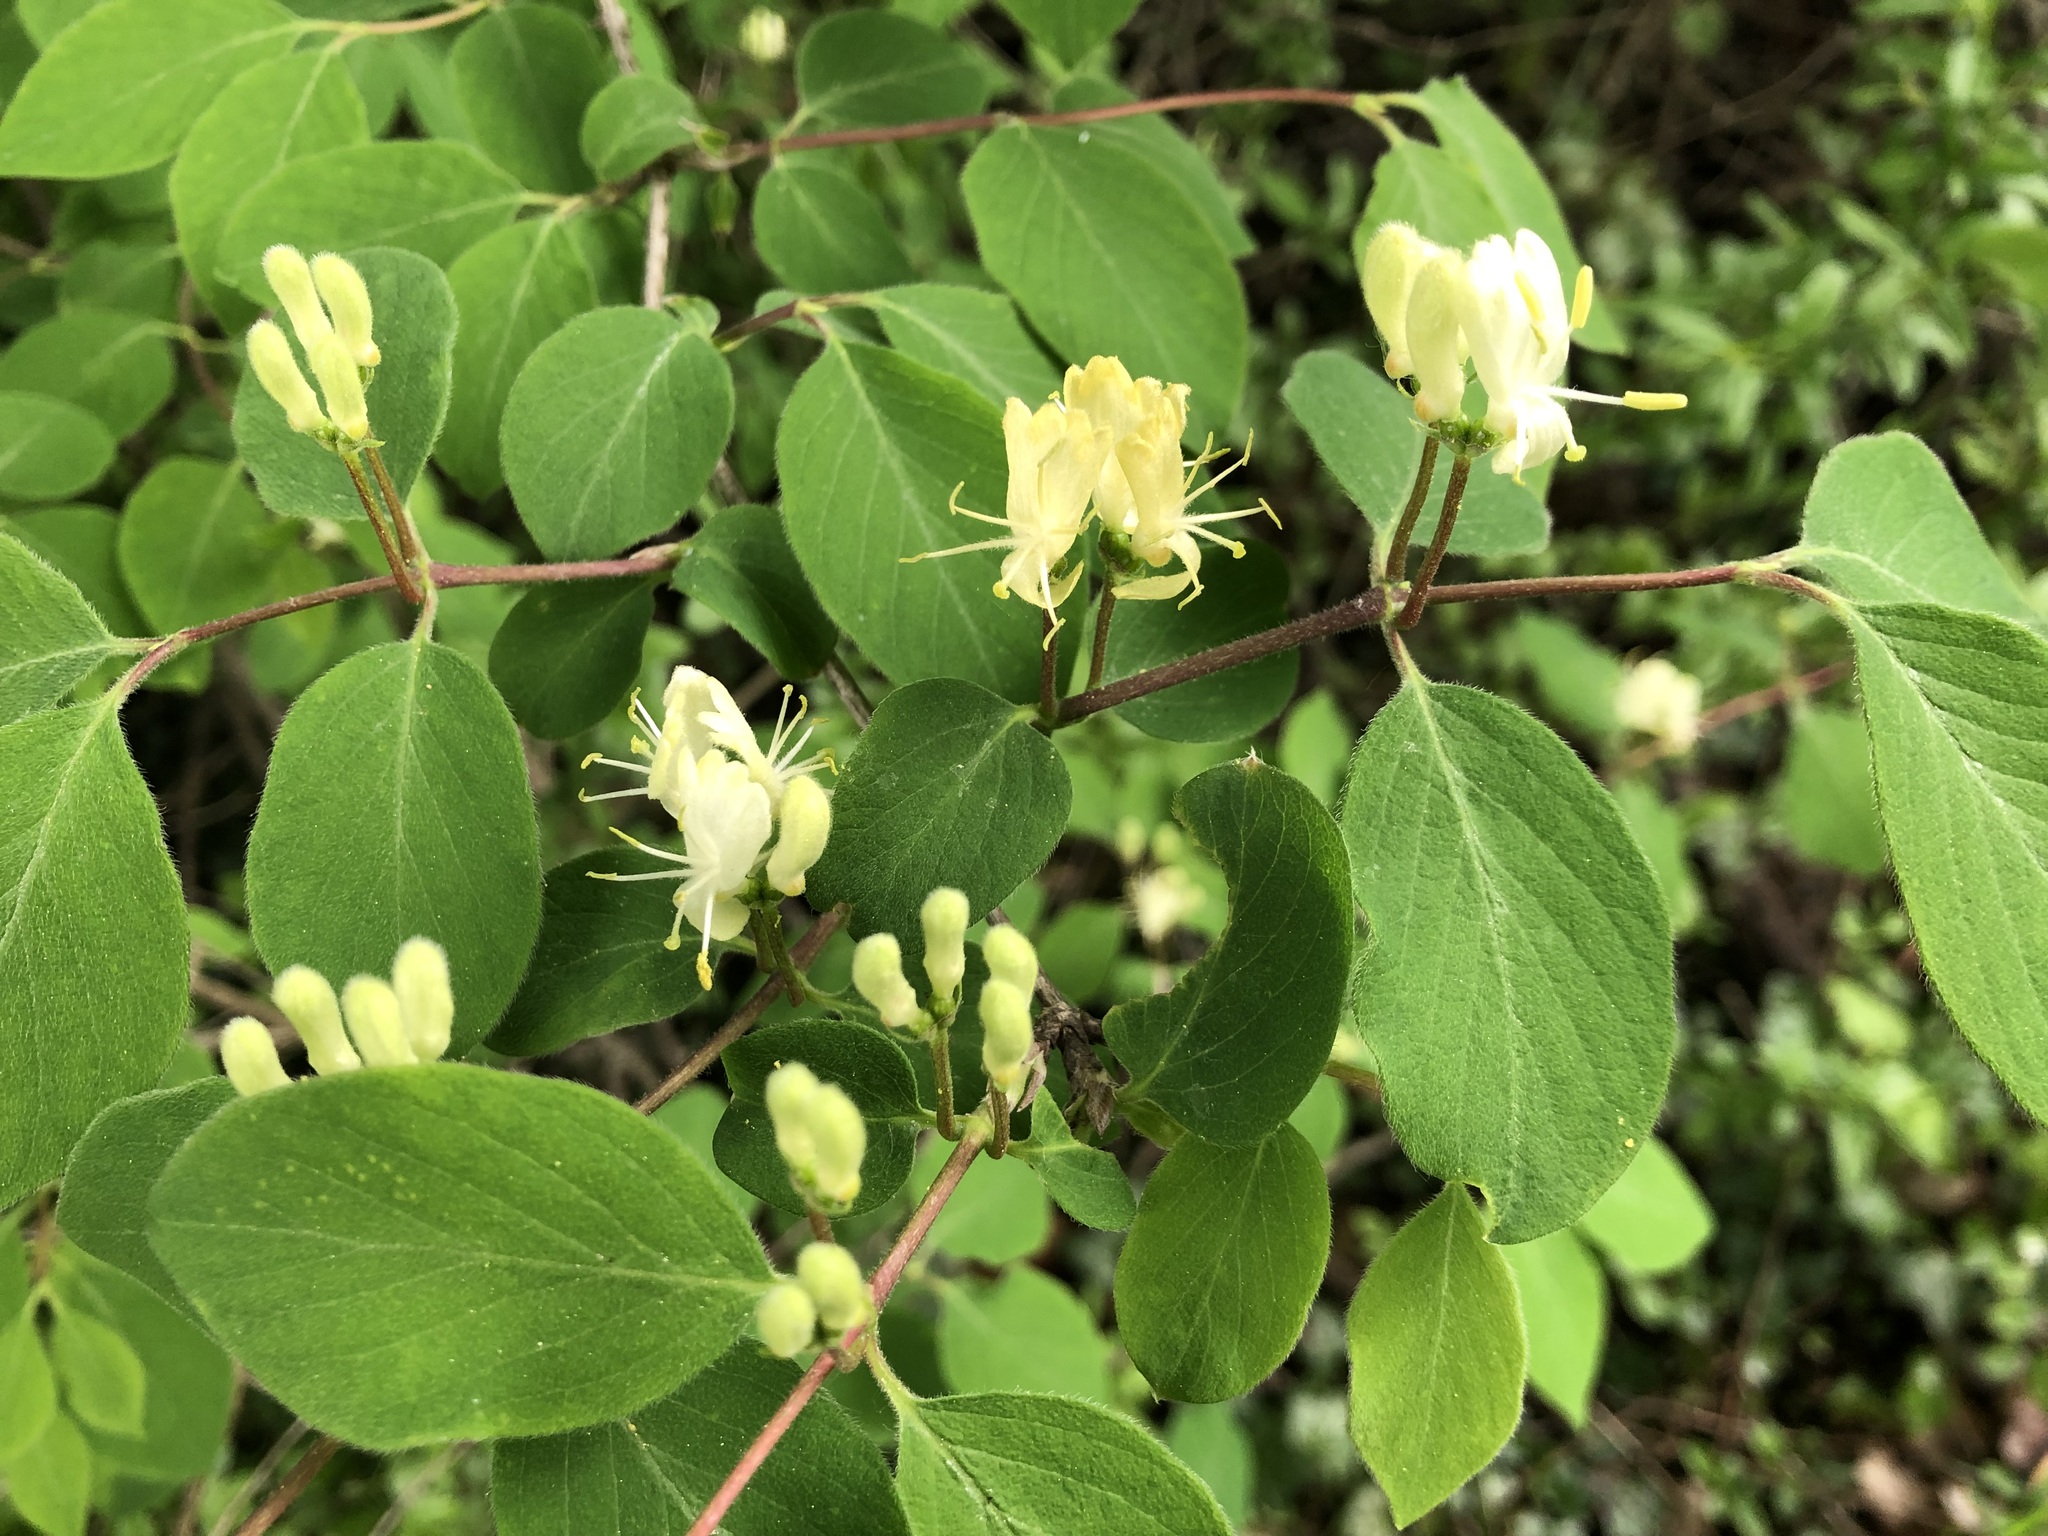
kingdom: Plantae
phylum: Tracheophyta
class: Magnoliopsida
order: Dipsacales
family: Caprifoliaceae
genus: Lonicera
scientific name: Lonicera xylosteum
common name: Fly honeysuckle
